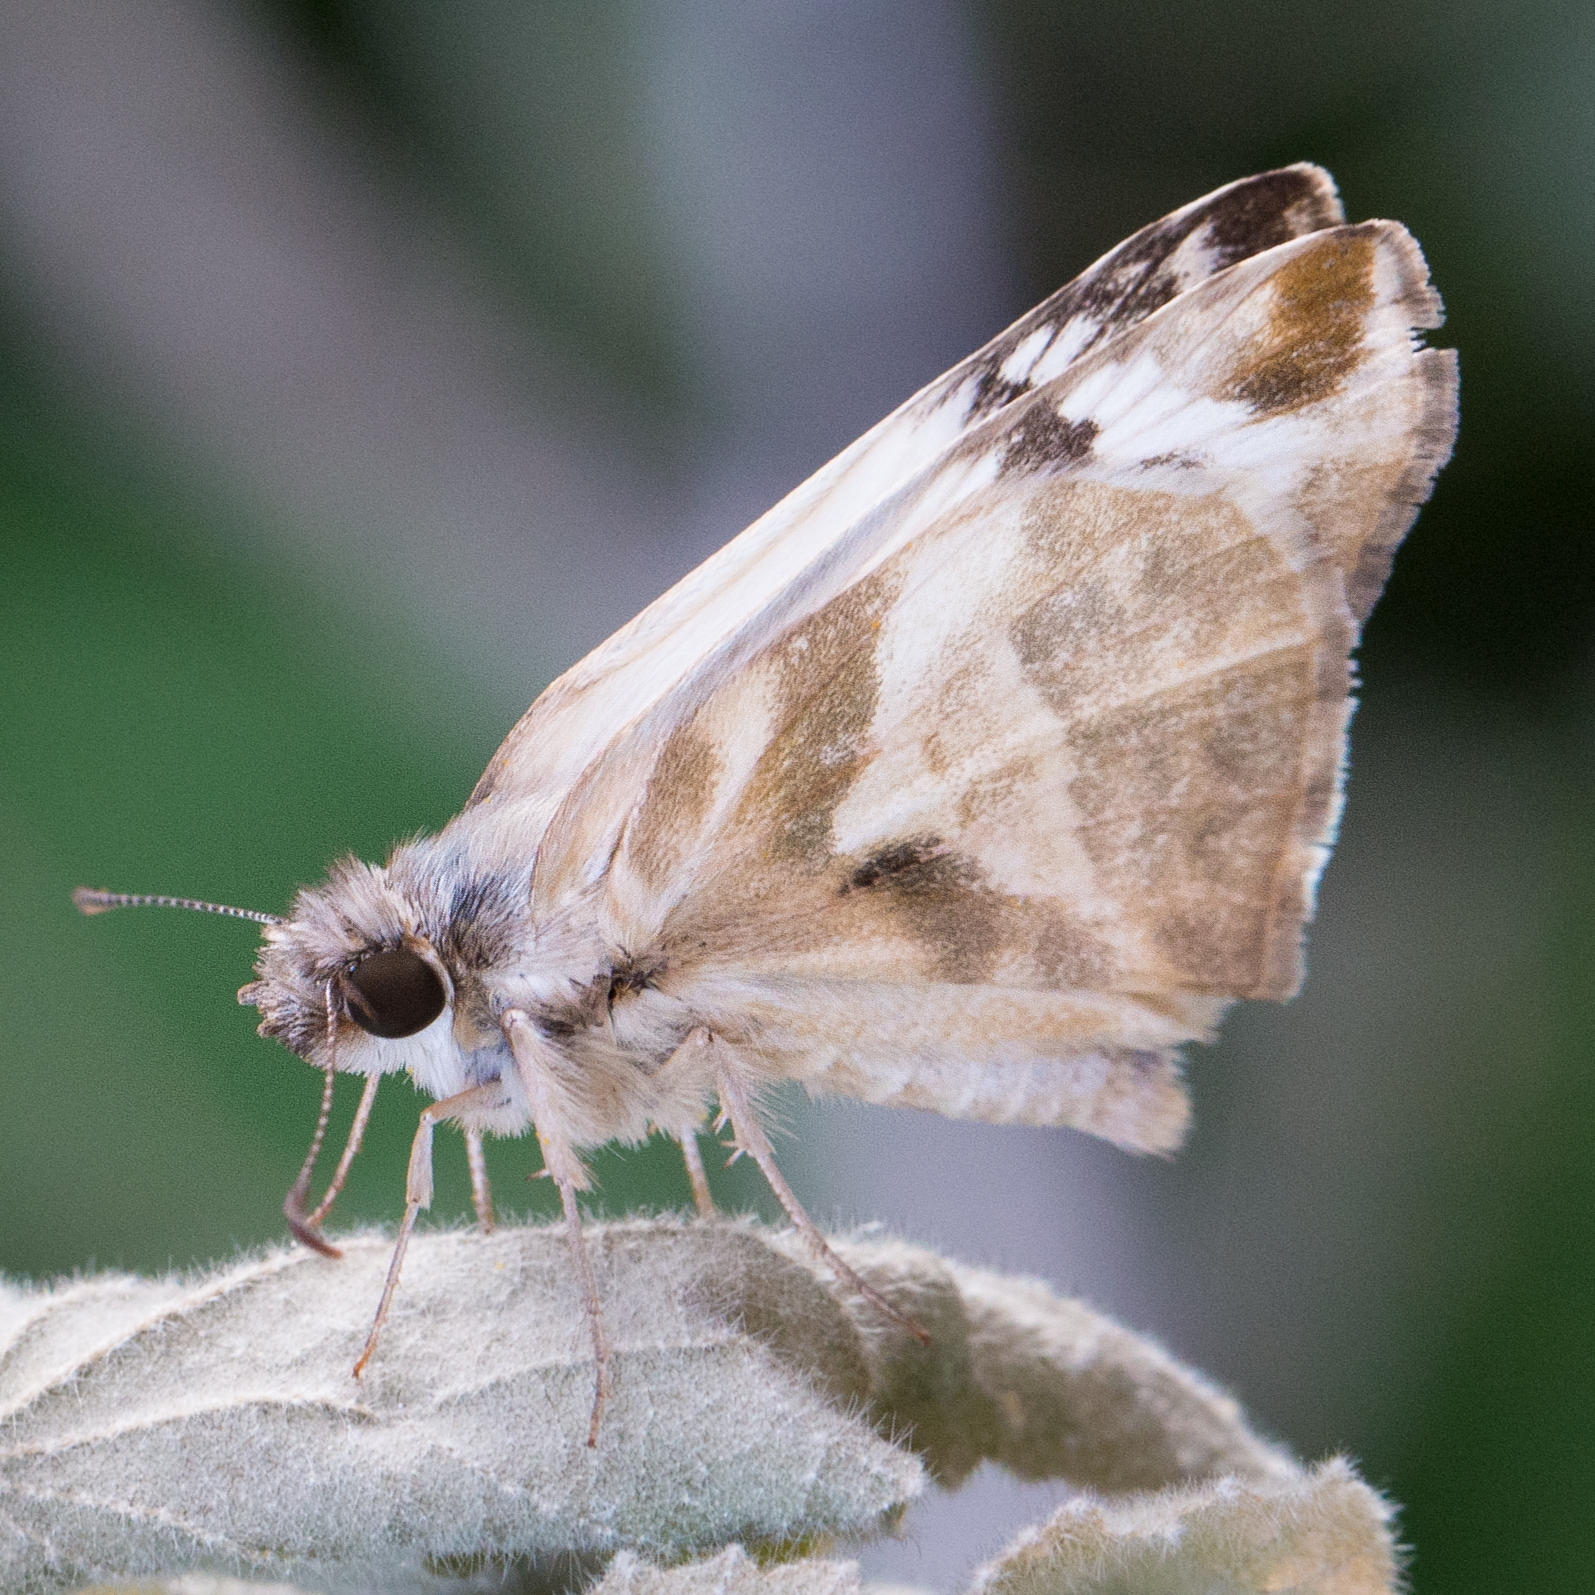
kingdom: Animalia
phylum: Arthropoda
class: Insecta
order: Lepidoptera
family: Hesperiidae
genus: Heliopetes
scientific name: Heliopetes laviana
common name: Laviana white-skipper
